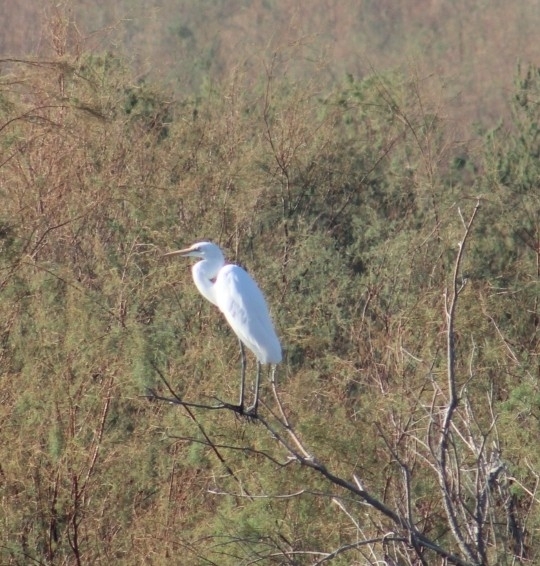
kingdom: Animalia
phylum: Chordata
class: Aves
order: Pelecaniformes
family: Ardeidae
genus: Ardea
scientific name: Ardea alba
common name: Great egret
